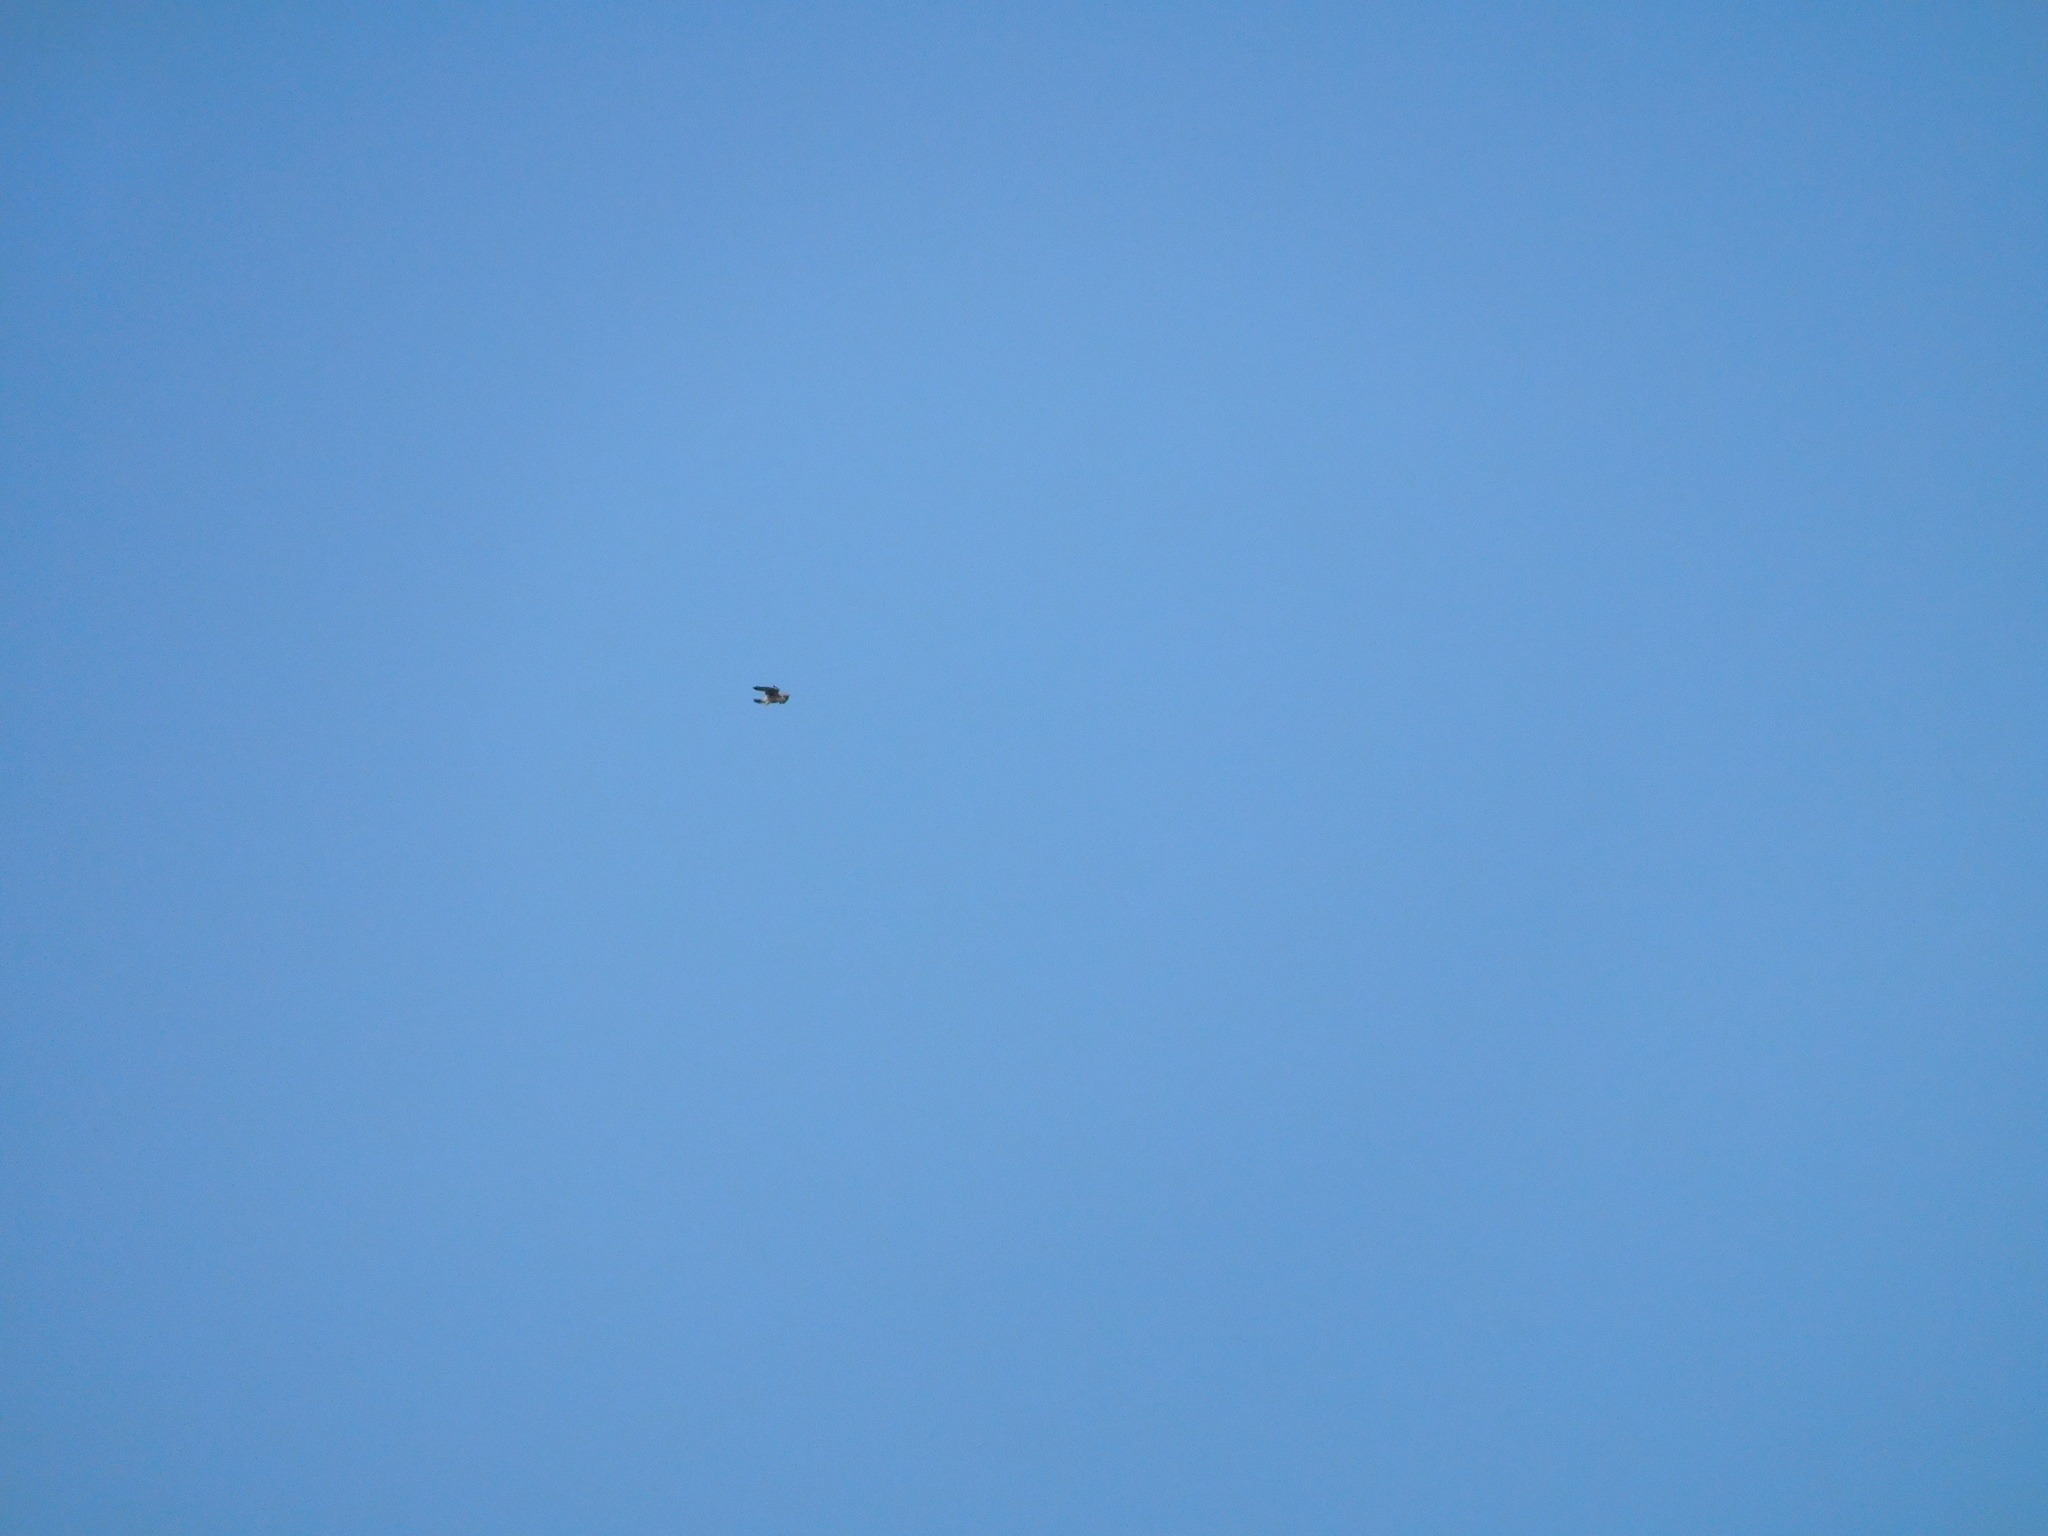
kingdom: Animalia
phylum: Chordata
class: Aves
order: Falconiformes
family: Falconidae
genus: Falco
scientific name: Falco tinnunculus
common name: Common kestrel
